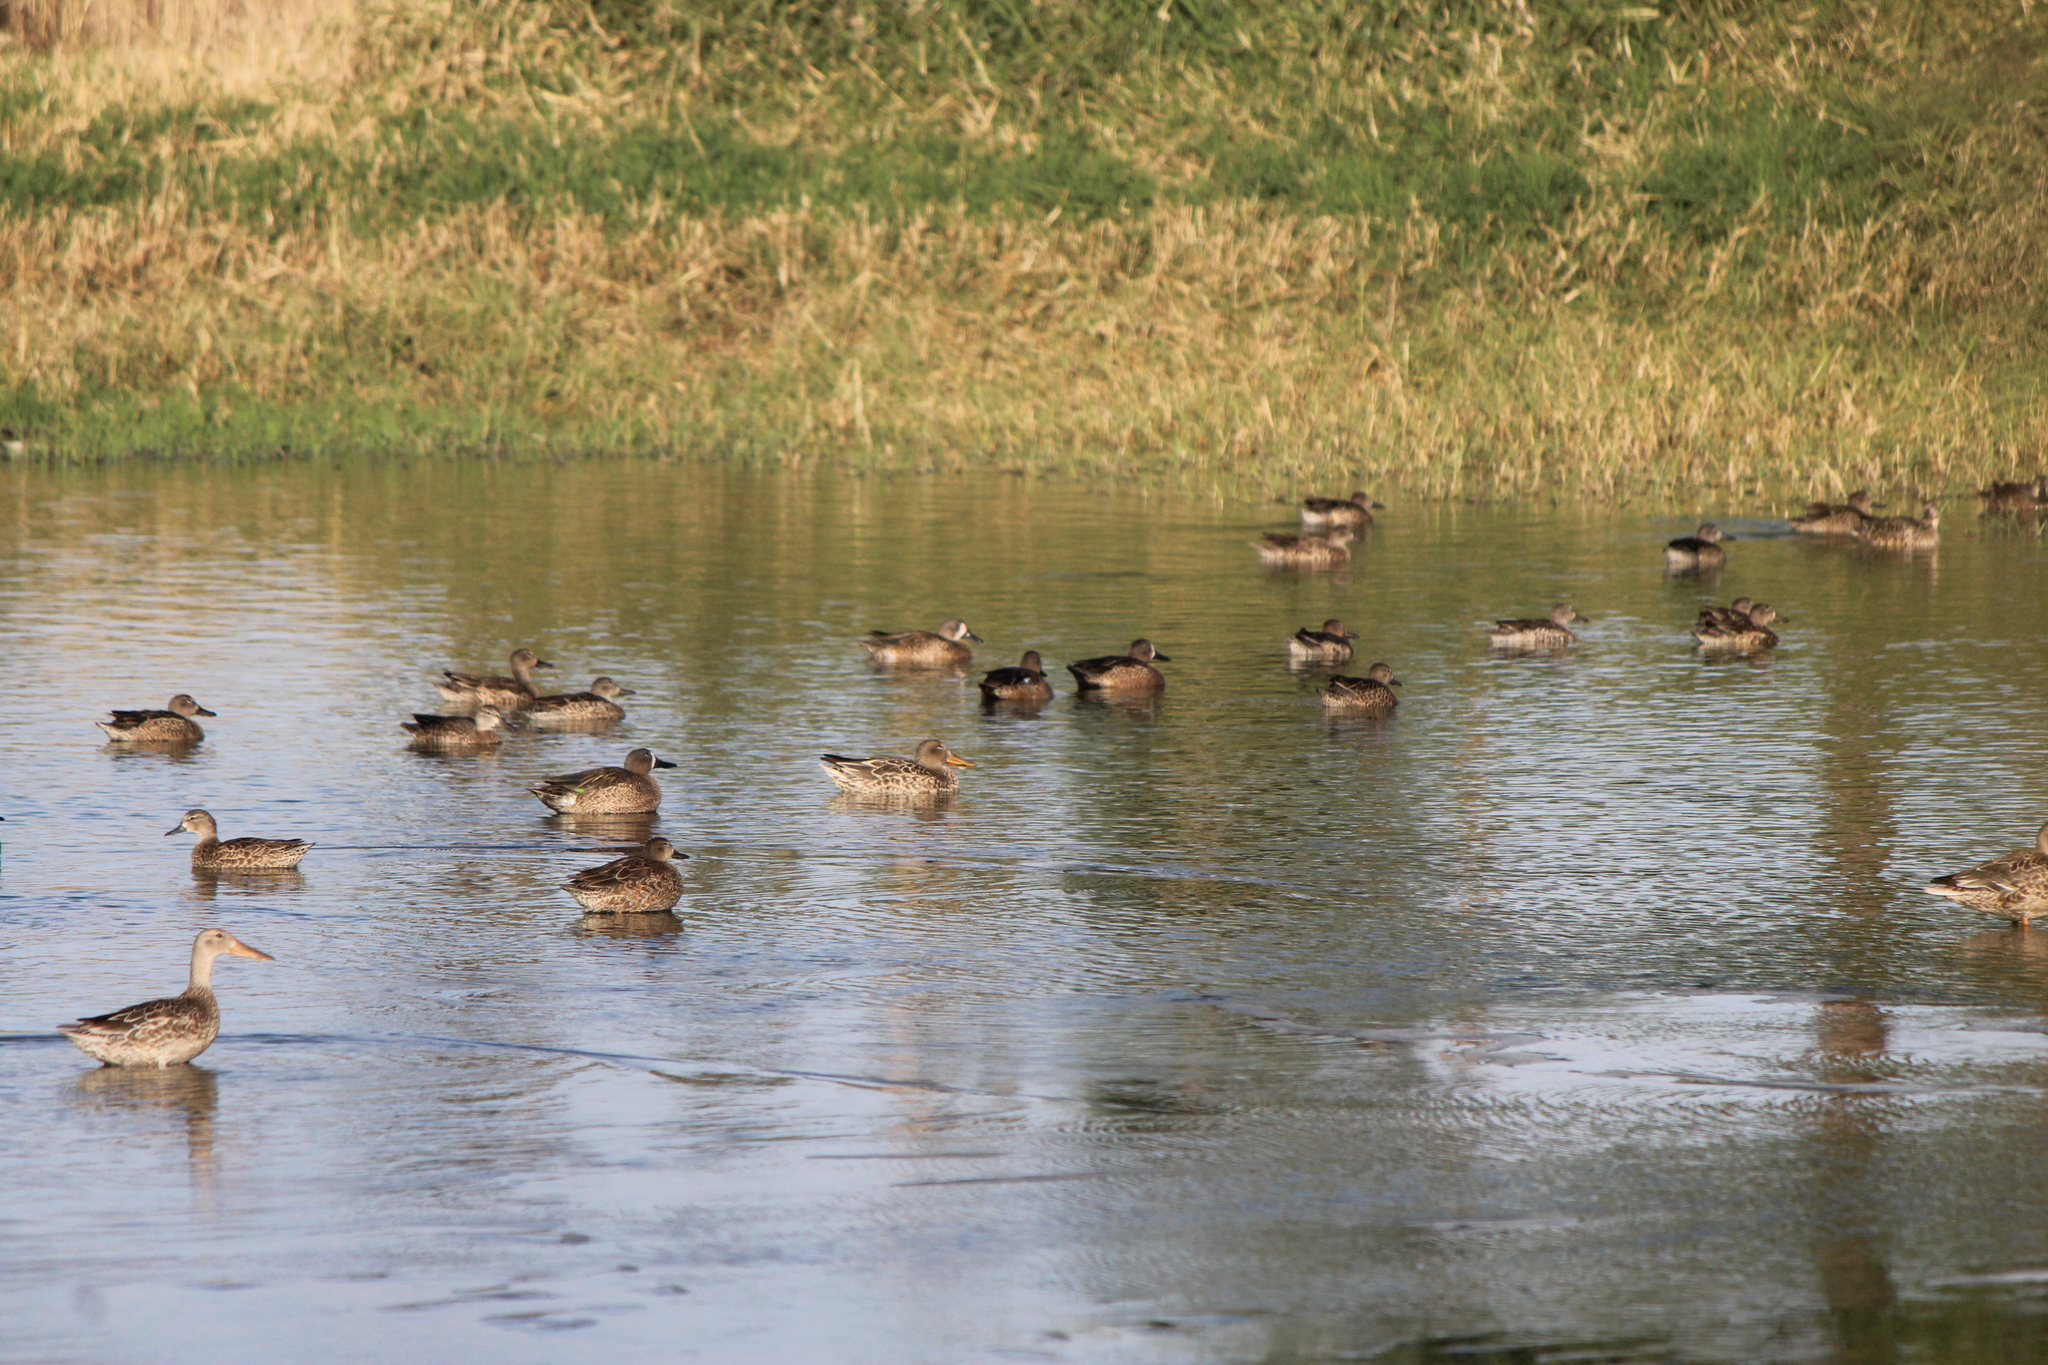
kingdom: Animalia
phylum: Chordata
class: Aves
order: Anseriformes
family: Anatidae
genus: Spatula
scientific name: Spatula discors
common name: Blue-winged teal
